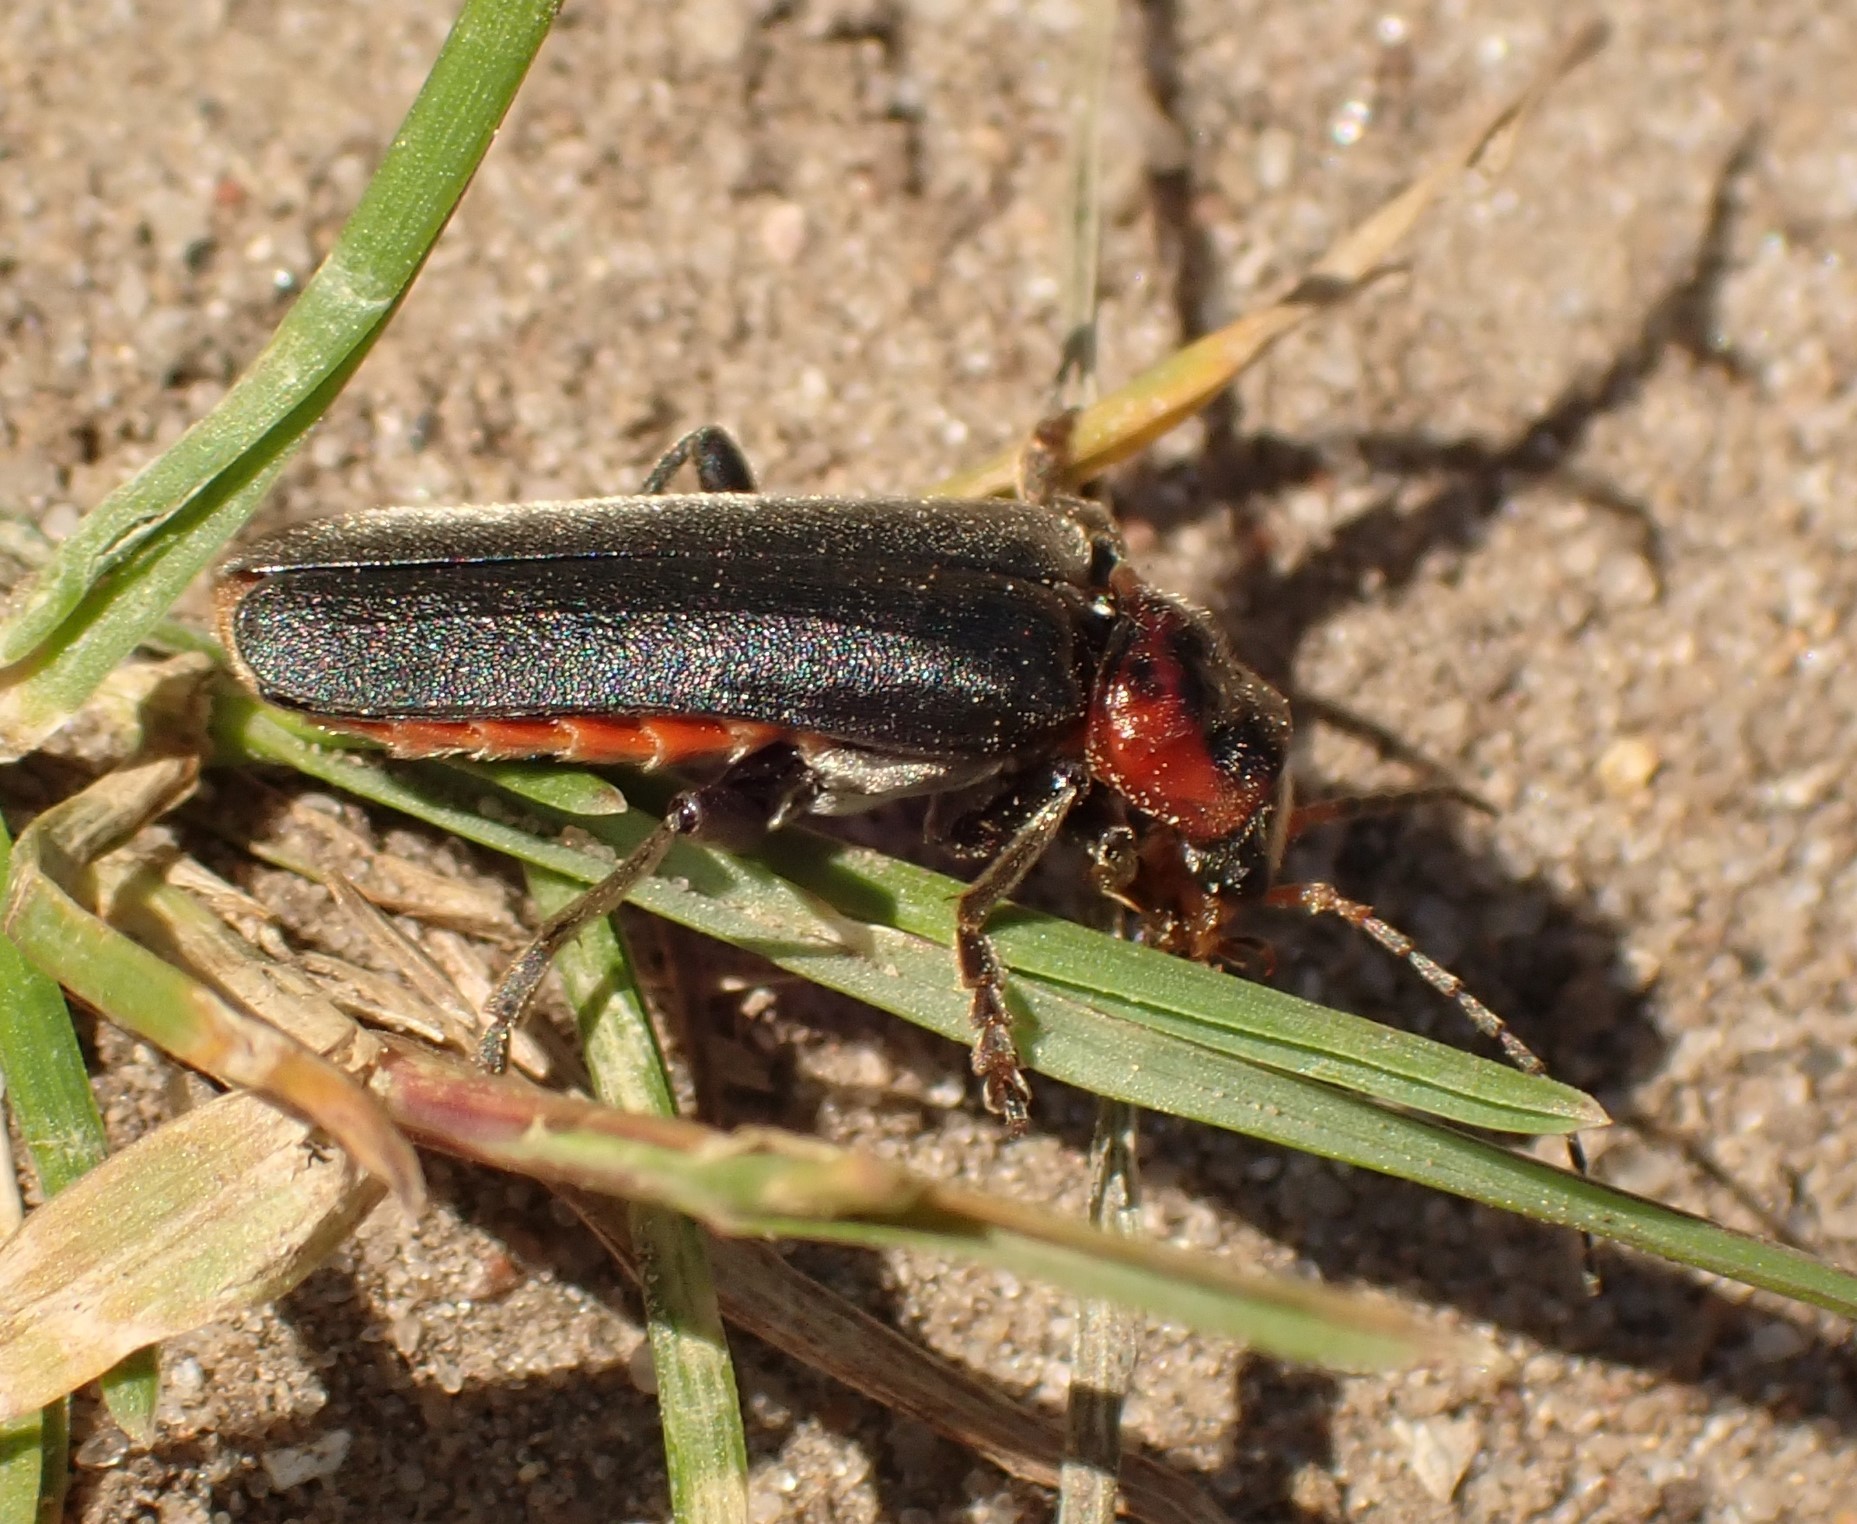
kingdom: Animalia
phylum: Arthropoda
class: Insecta
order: Coleoptera
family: Cantharidae
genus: Cantharis
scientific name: Cantharis fusca
